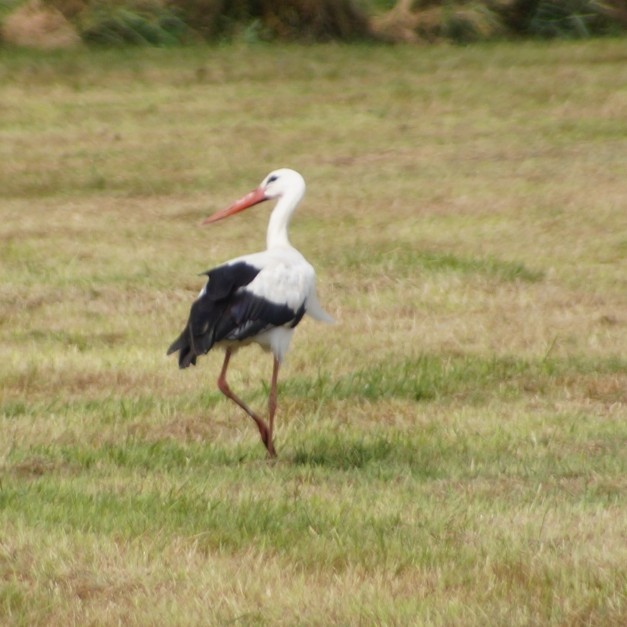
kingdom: Animalia
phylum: Chordata
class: Aves
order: Ciconiiformes
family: Ciconiidae
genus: Ciconia
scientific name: Ciconia ciconia
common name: White stork
